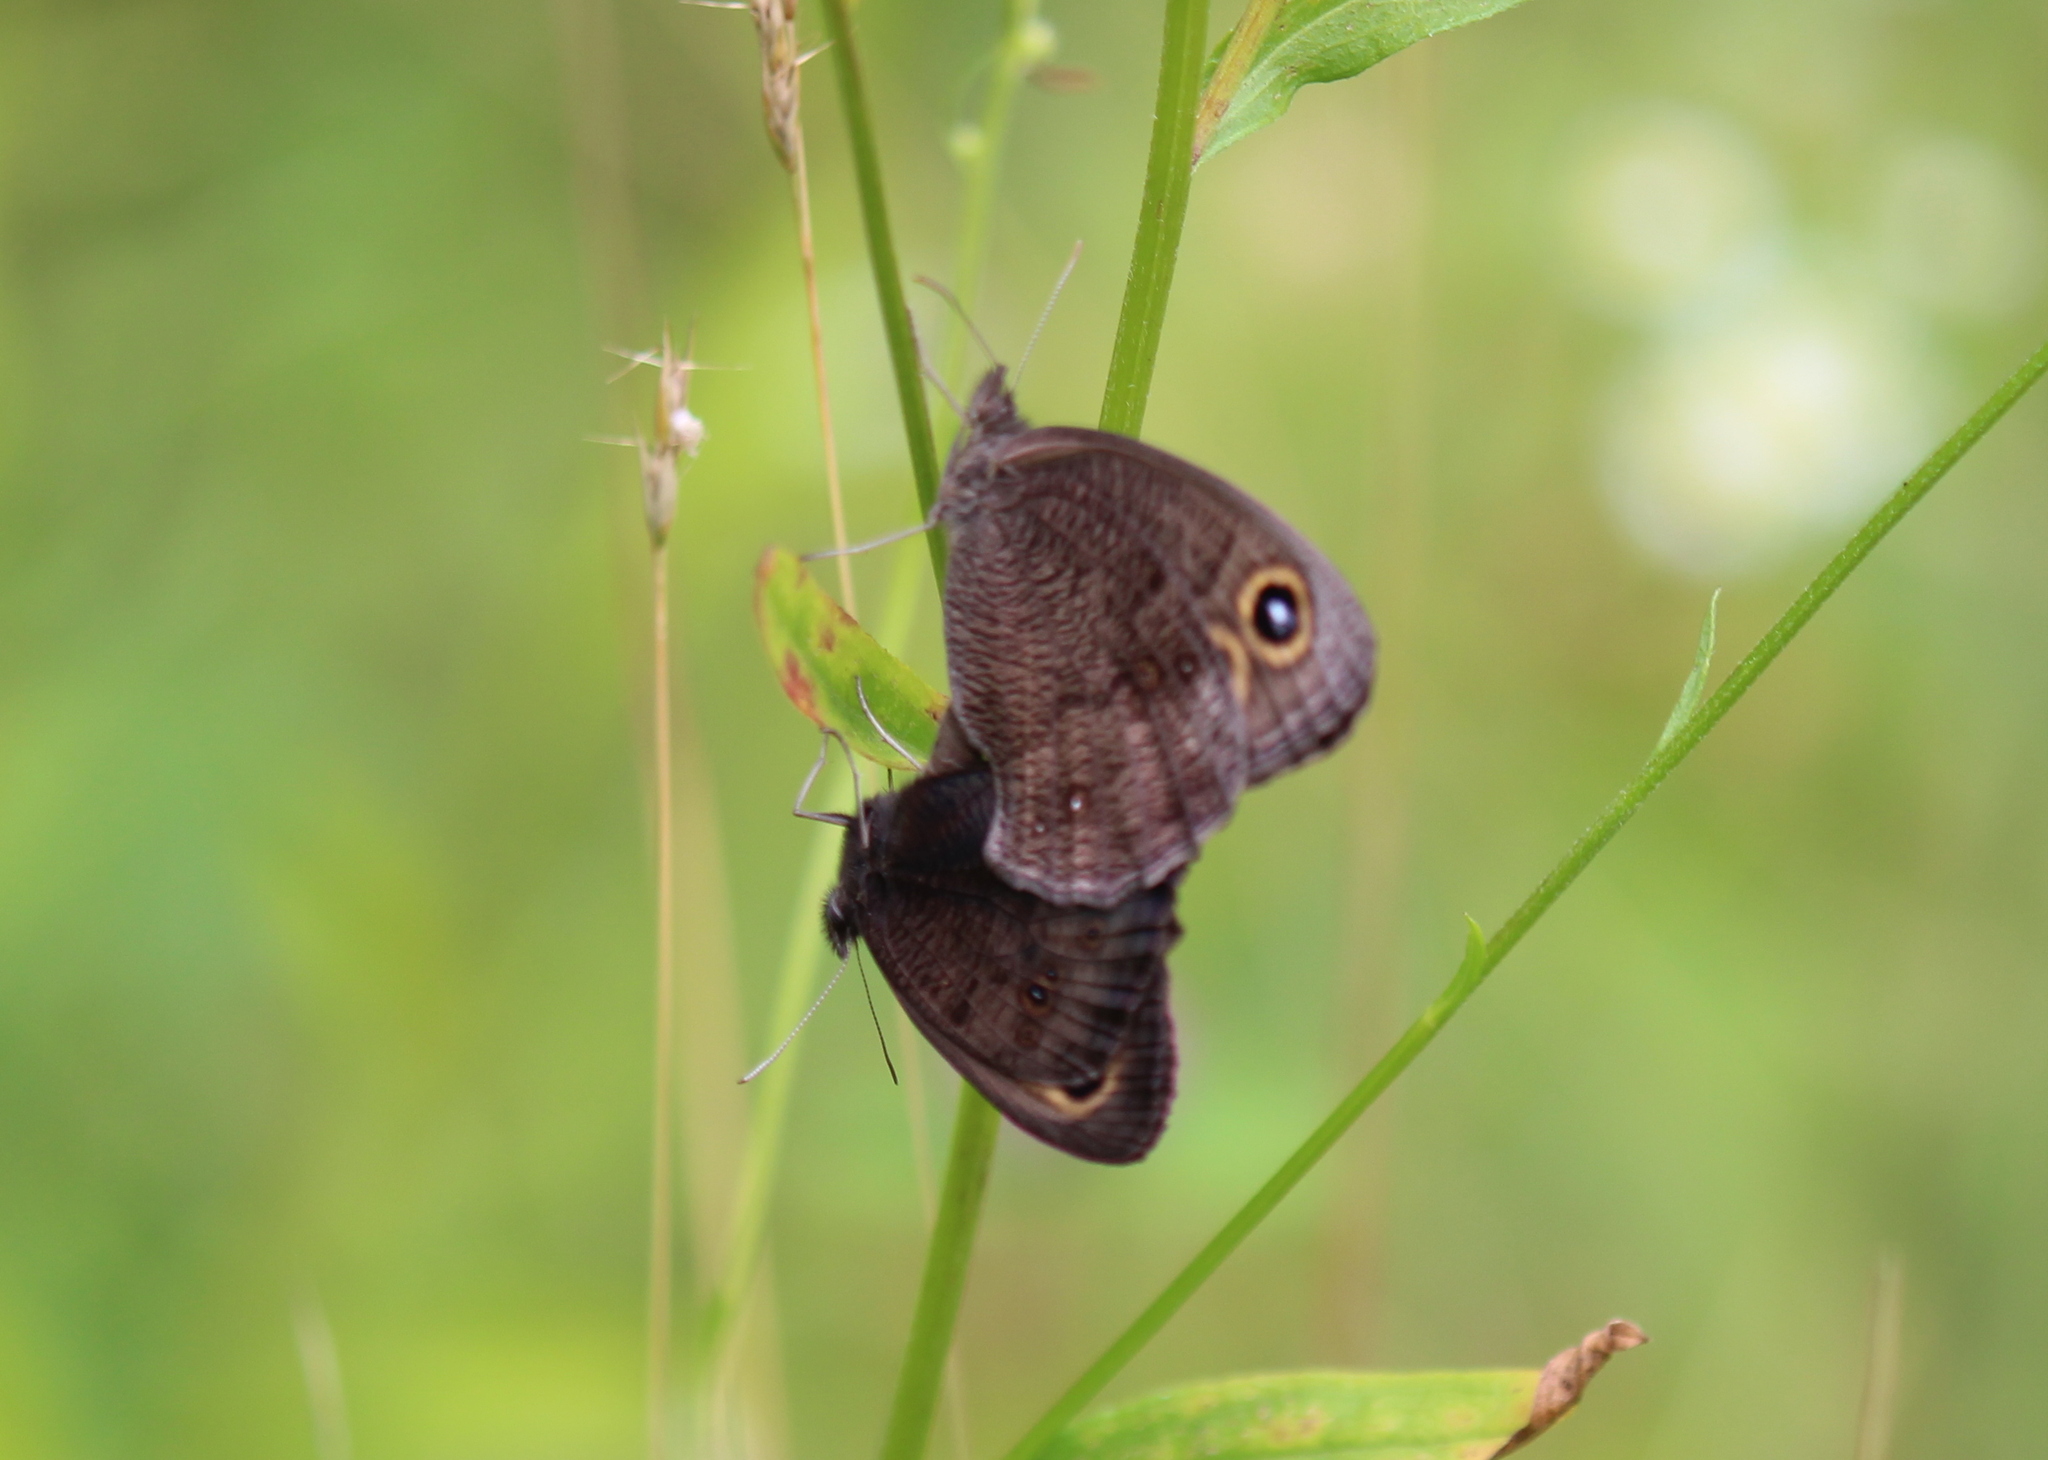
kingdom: Animalia
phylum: Arthropoda
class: Insecta
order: Lepidoptera
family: Nymphalidae
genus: Cercyonis
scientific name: Cercyonis pegala
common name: Common wood-nymph
